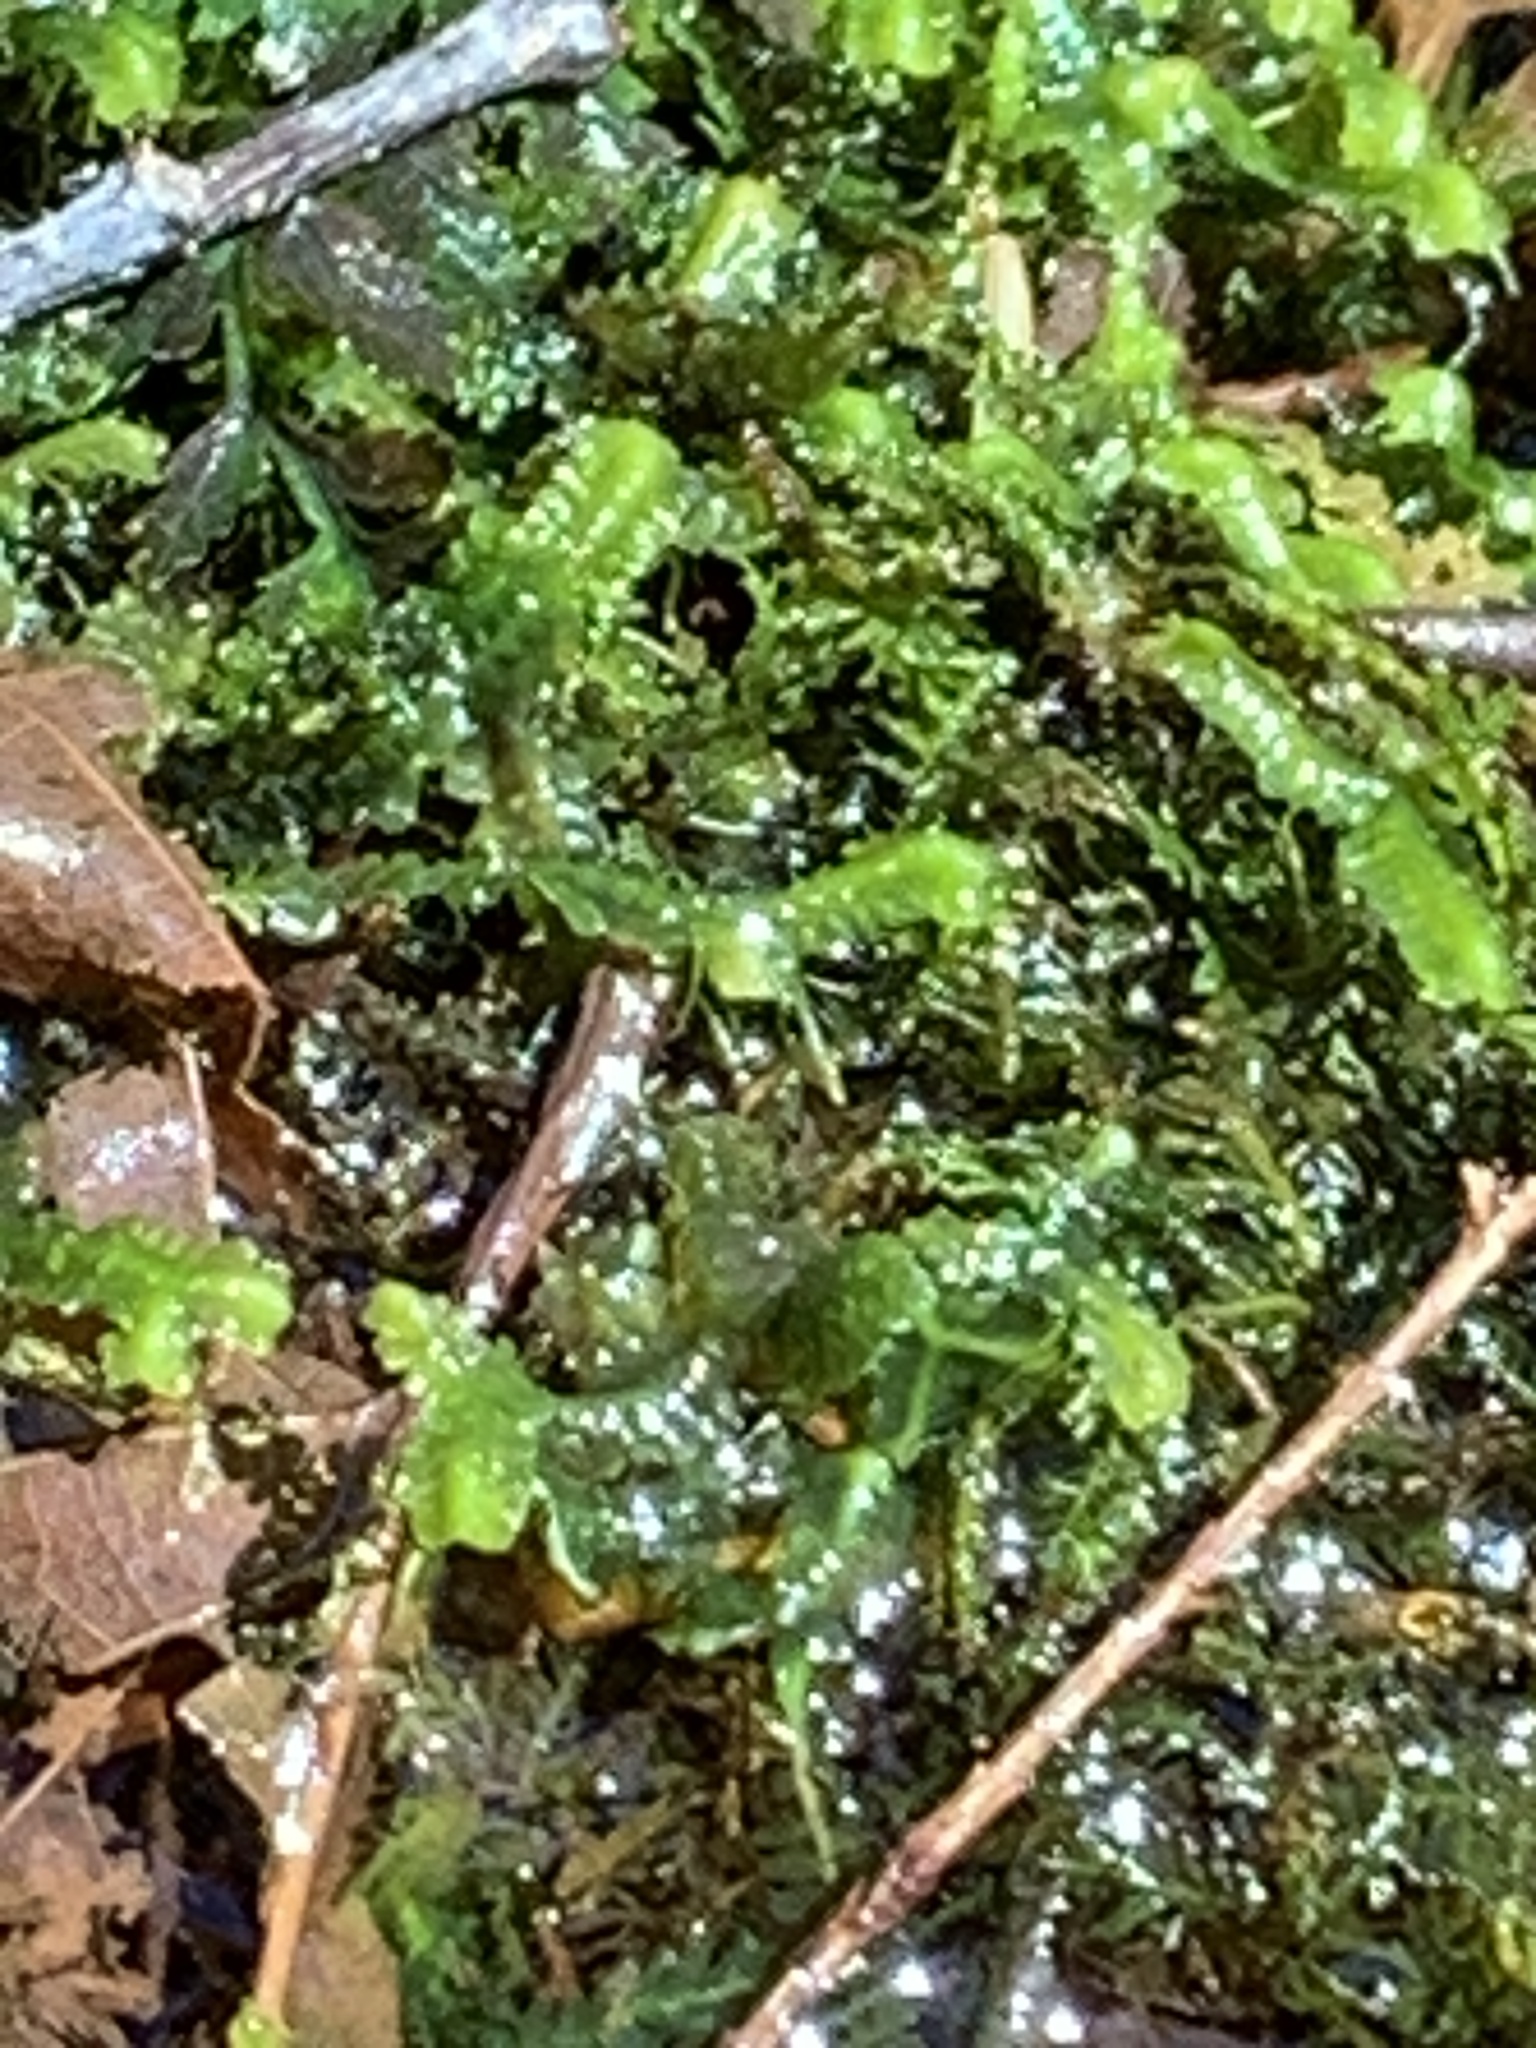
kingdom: Plantae
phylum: Marchantiophyta
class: Jungermanniopsida
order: Jungermanniales
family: Lepidoziaceae
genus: Bazzania
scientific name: Bazzania trilobata
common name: Three-lobed whipwort
